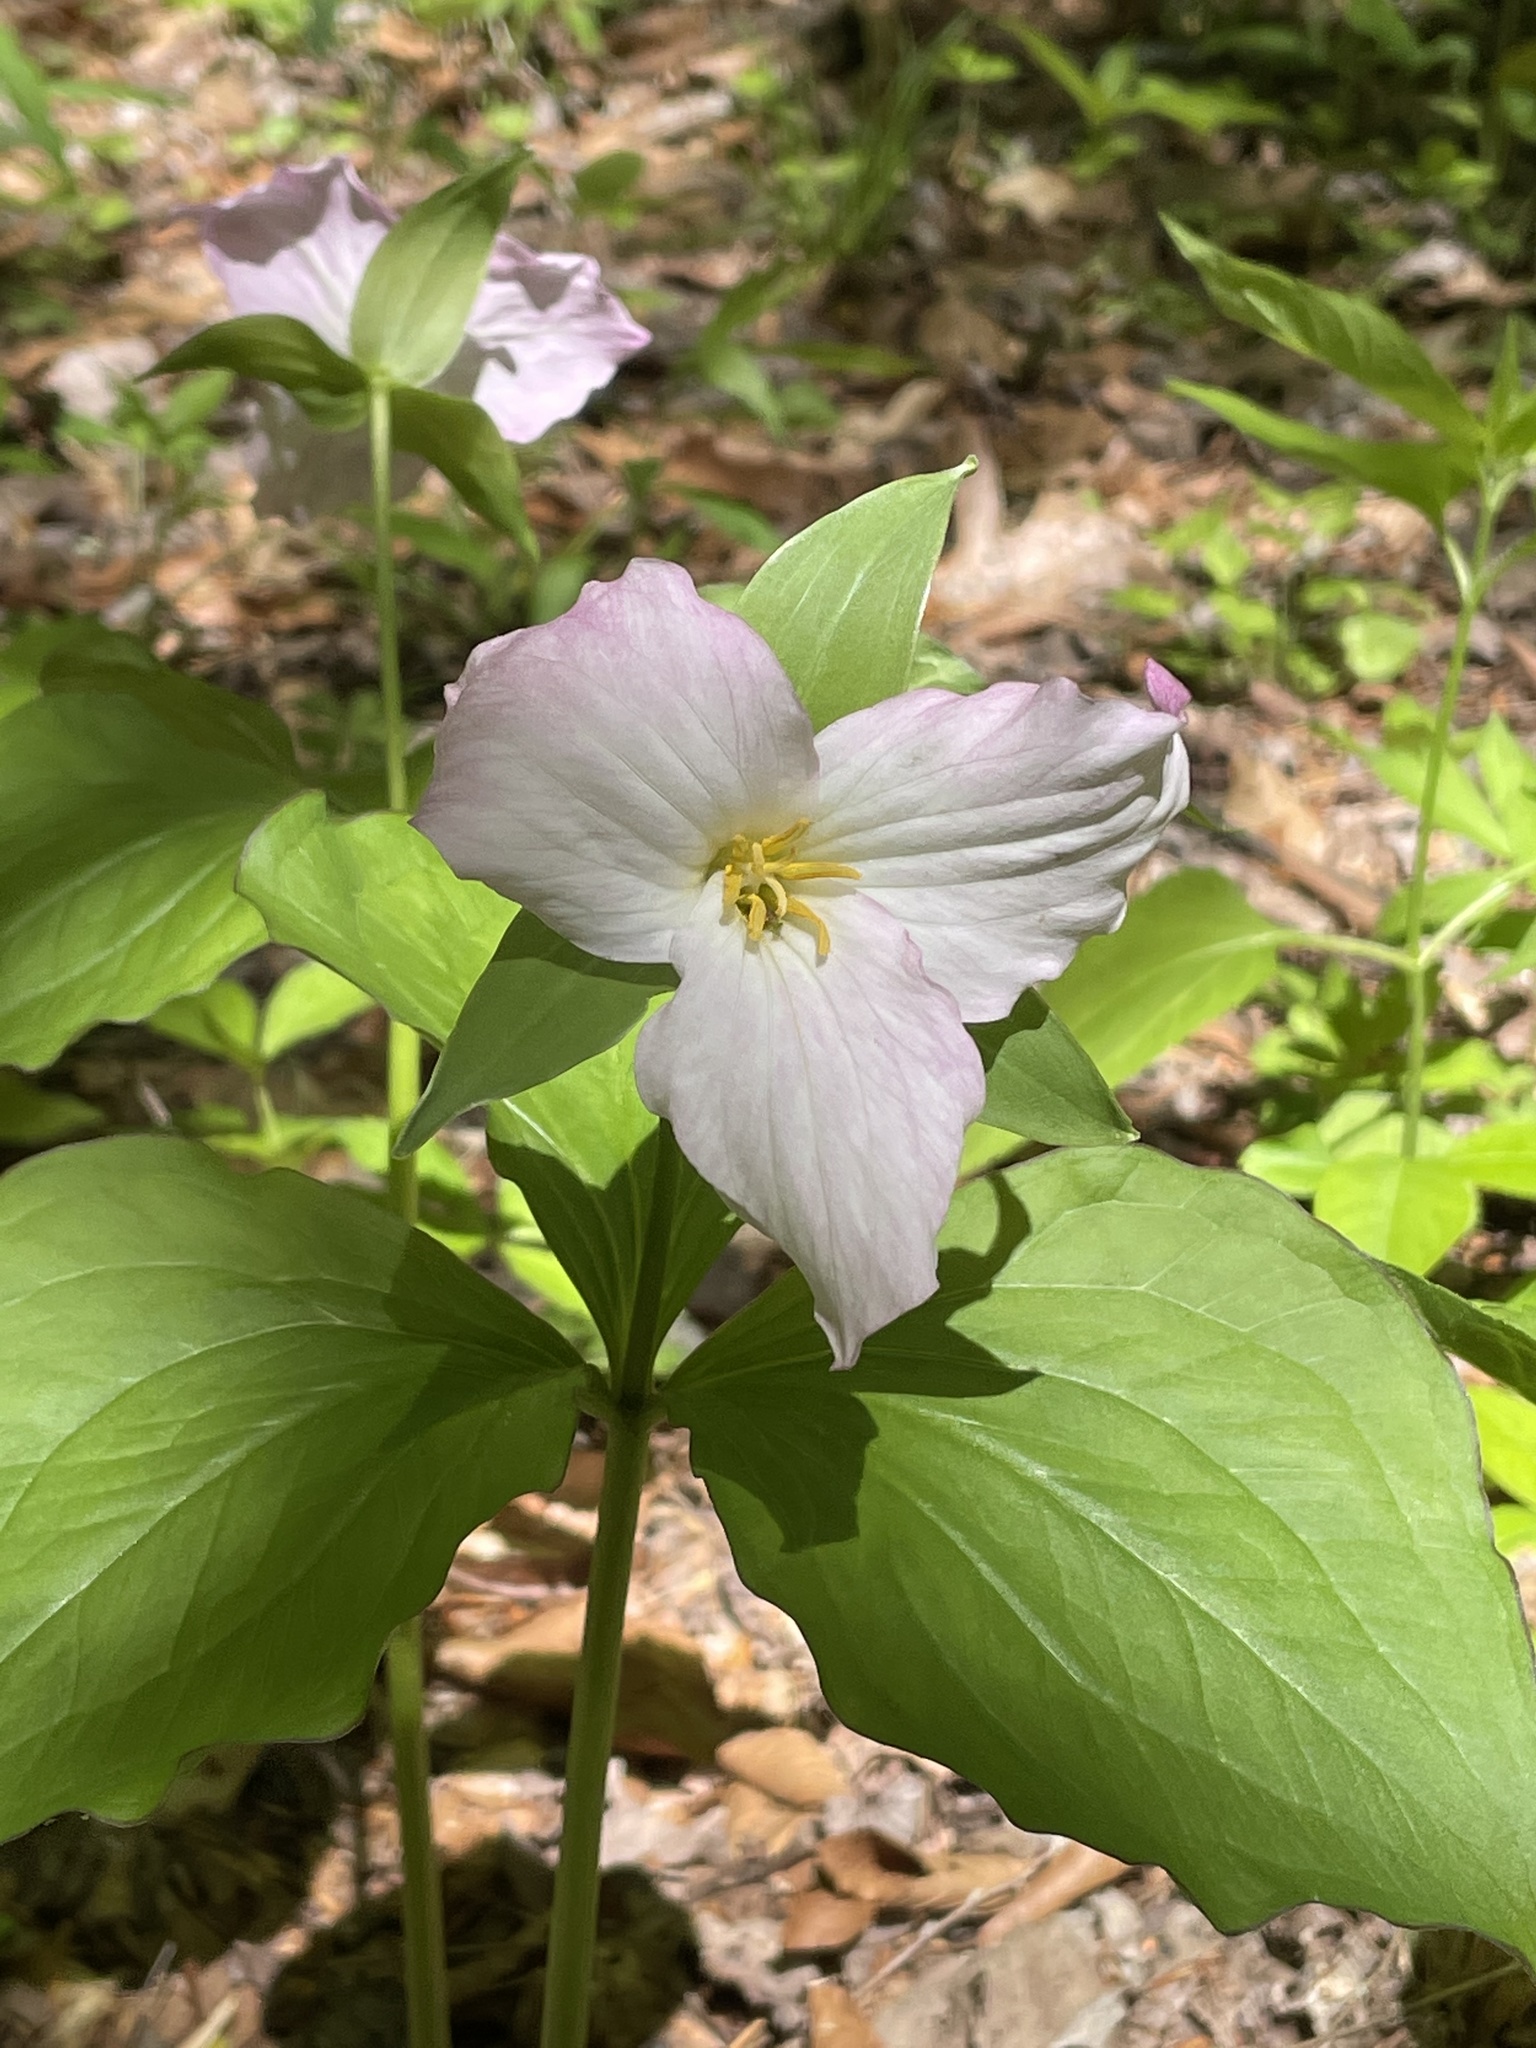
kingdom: Plantae
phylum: Tracheophyta
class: Liliopsida
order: Liliales
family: Melanthiaceae
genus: Trillium
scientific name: Trillium grandiflorum
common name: Great white trillium
